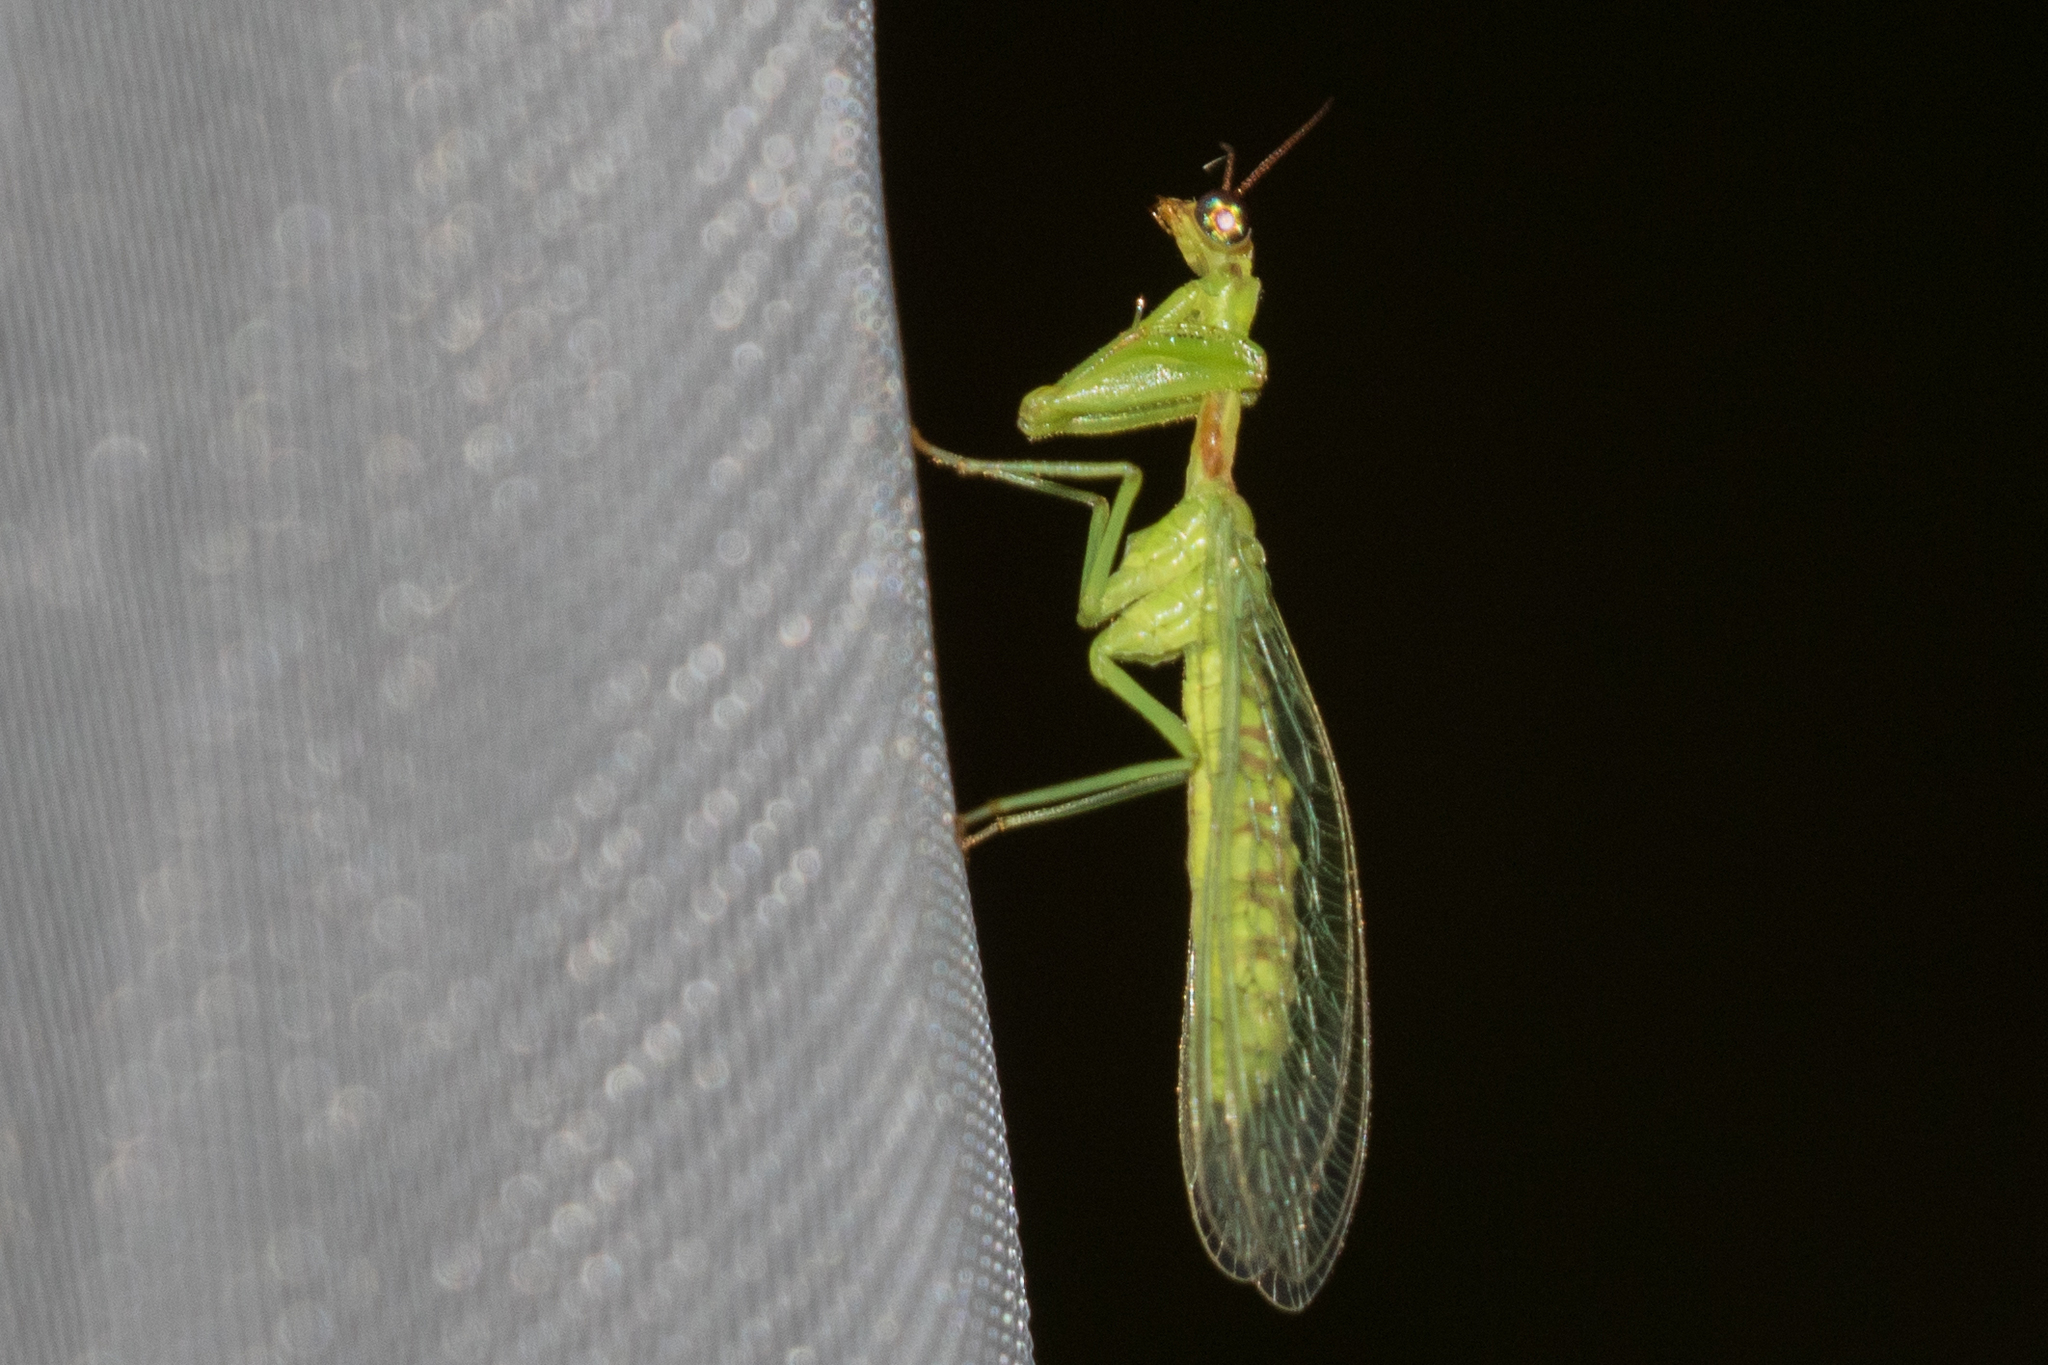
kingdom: Animalia
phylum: Arthropoda
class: Insecta
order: Neuroptera
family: Mantispidae
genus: Zeugomantispa
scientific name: Zeugomantispa minuta
